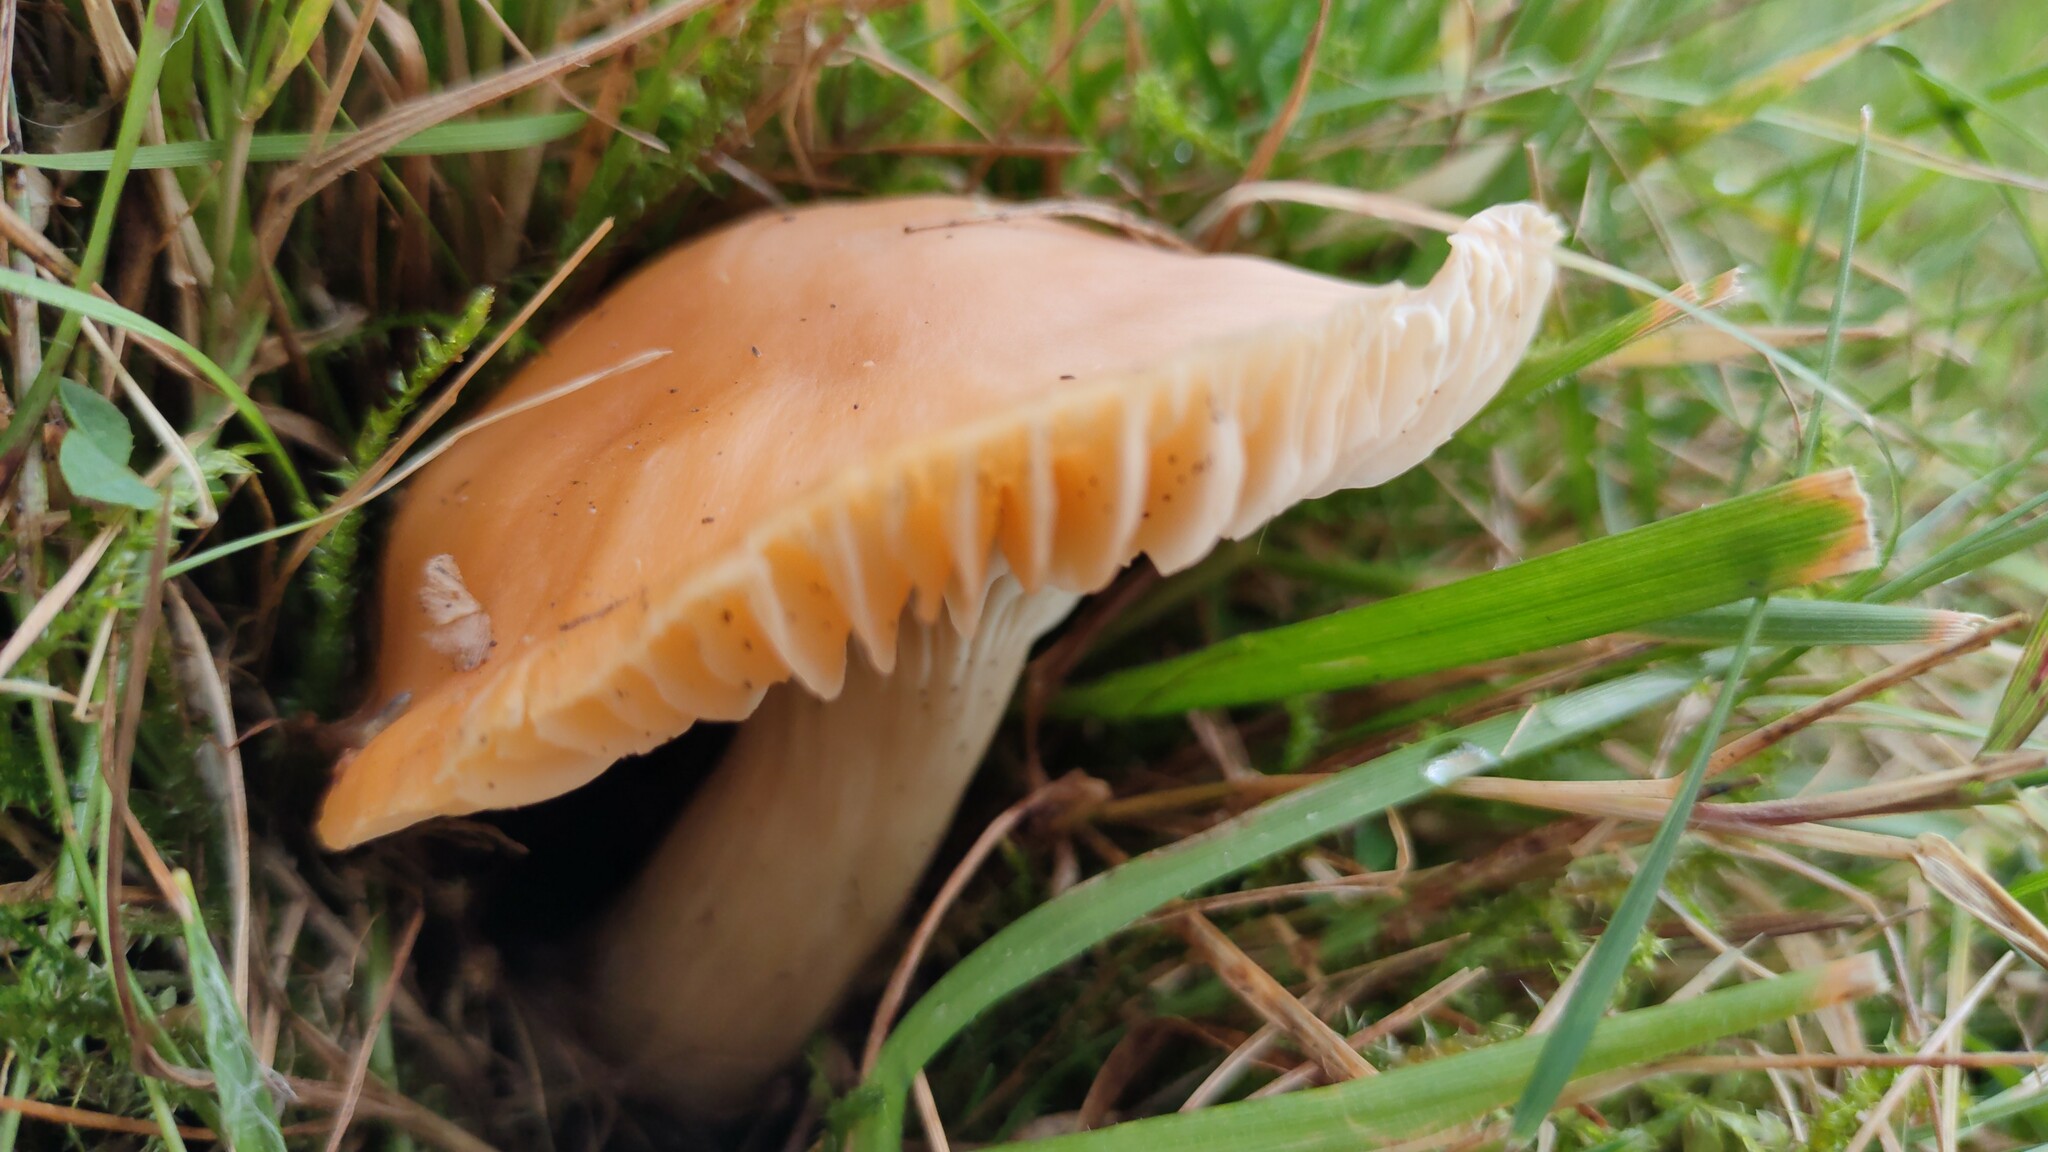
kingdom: Fungi
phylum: Basidiomycota
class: Agaricomycetes
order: Agaricales
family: Hygrophoraceae
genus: Cuphophyllus
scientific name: Cuphophyllus pratensis
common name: Meadow waxcap
